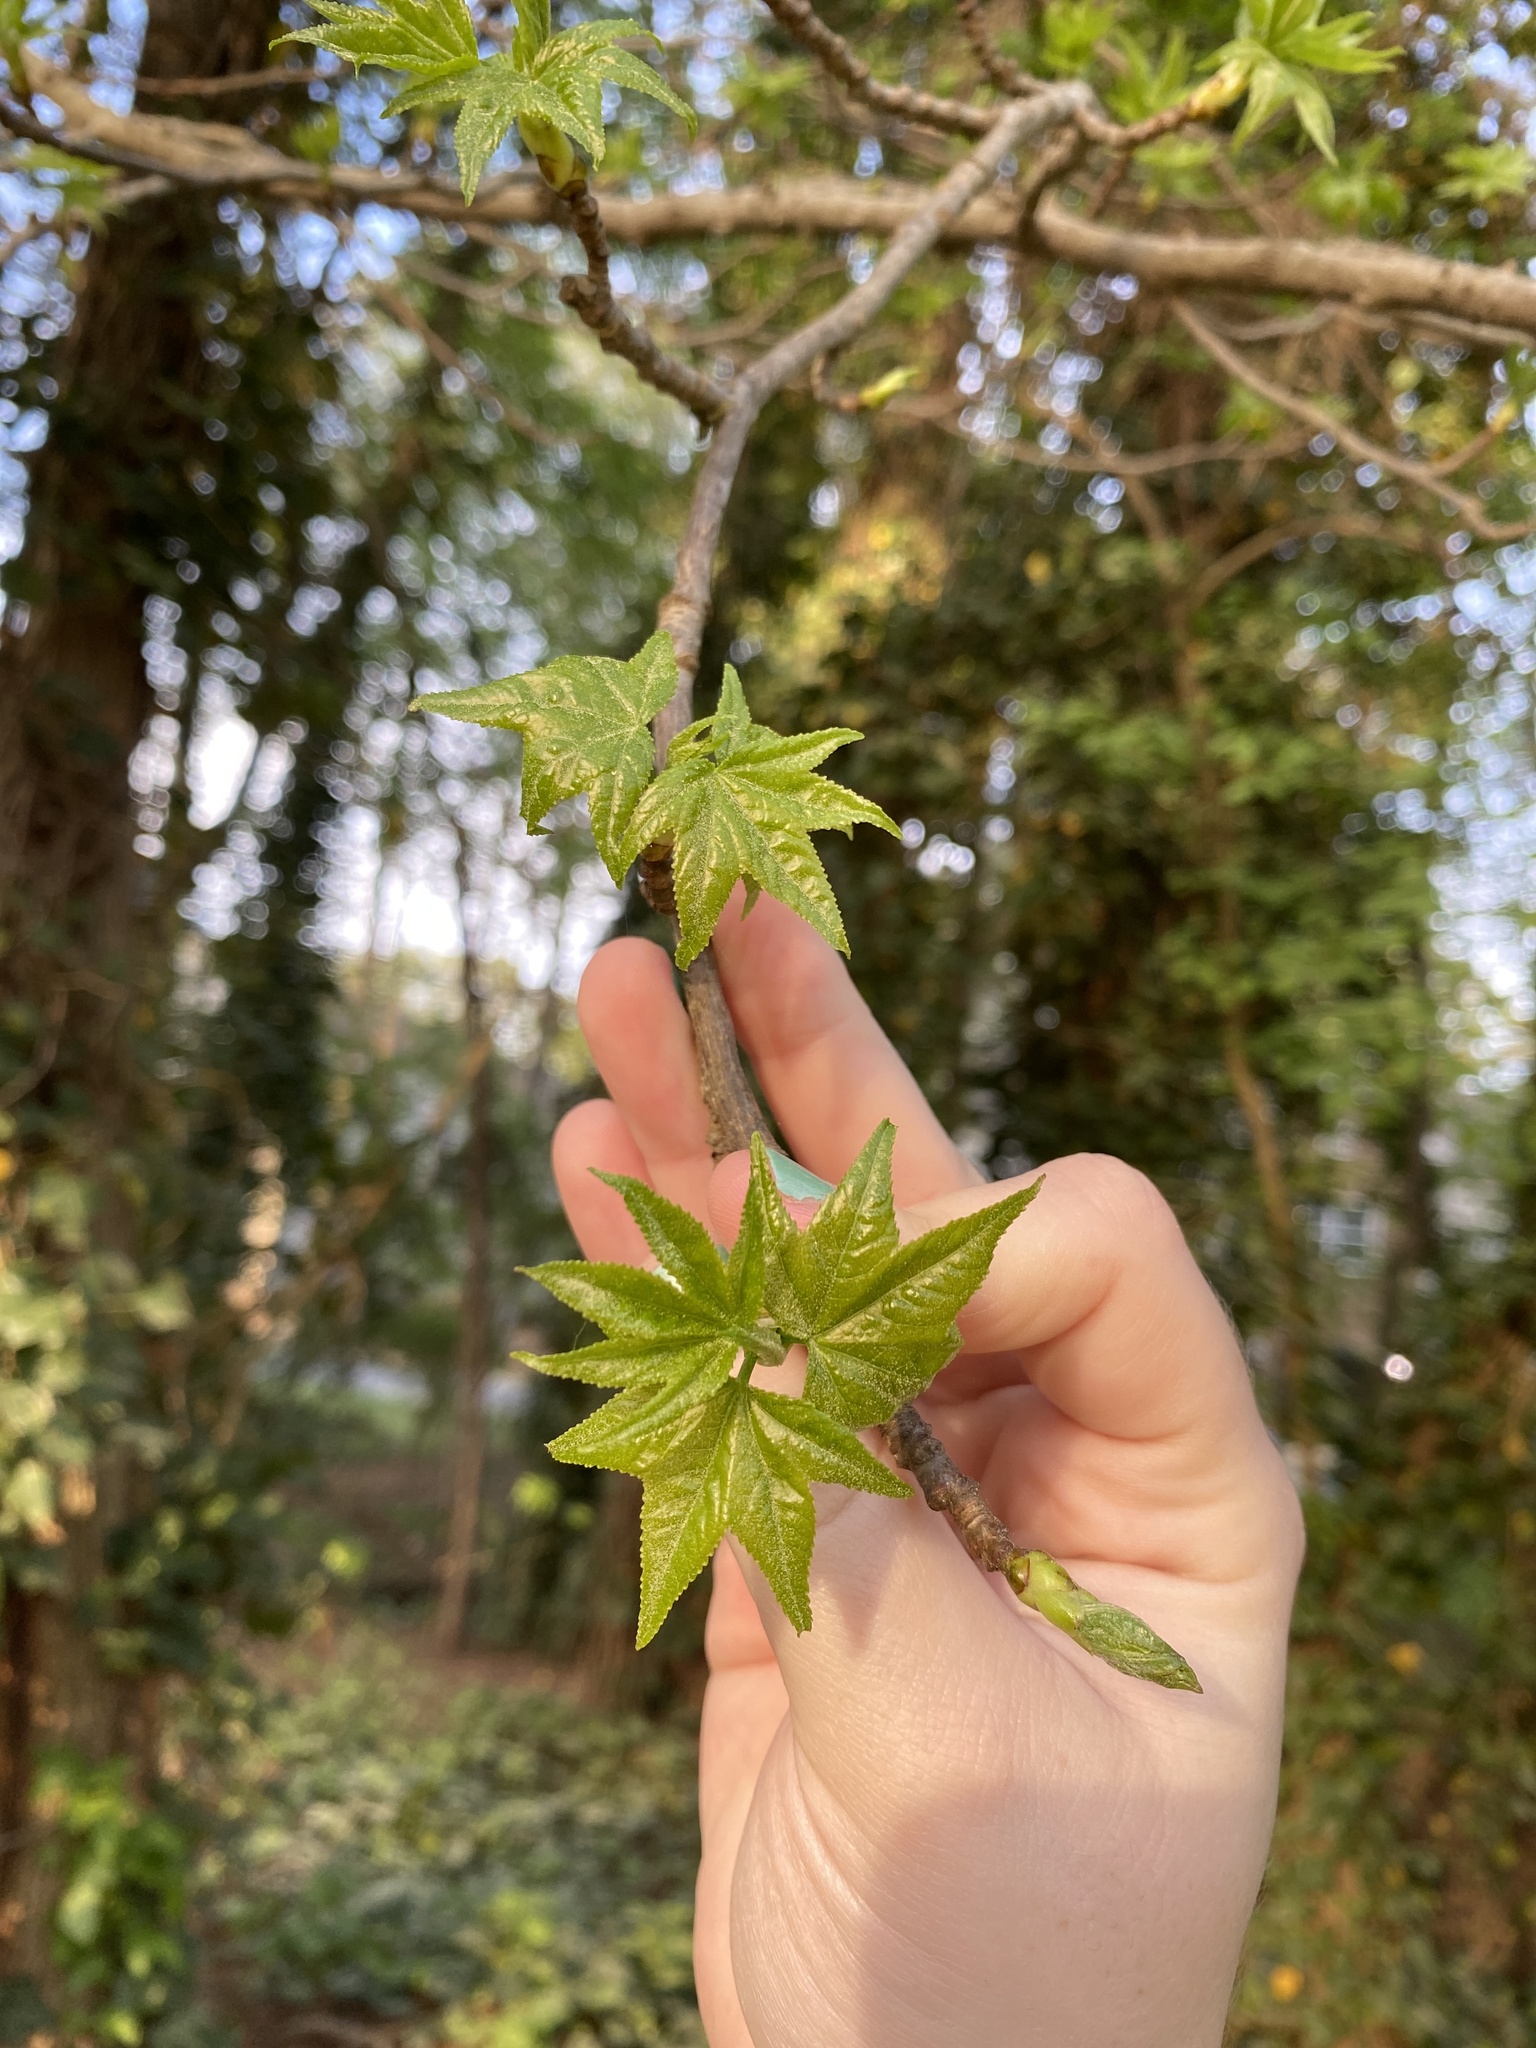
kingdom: Plantae
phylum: Tracheophyta
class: Magnoliopsida
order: Saxifragales
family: Altingiaceae
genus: Liquidambar
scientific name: Liquidambar styraciflua
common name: Sweet gum
